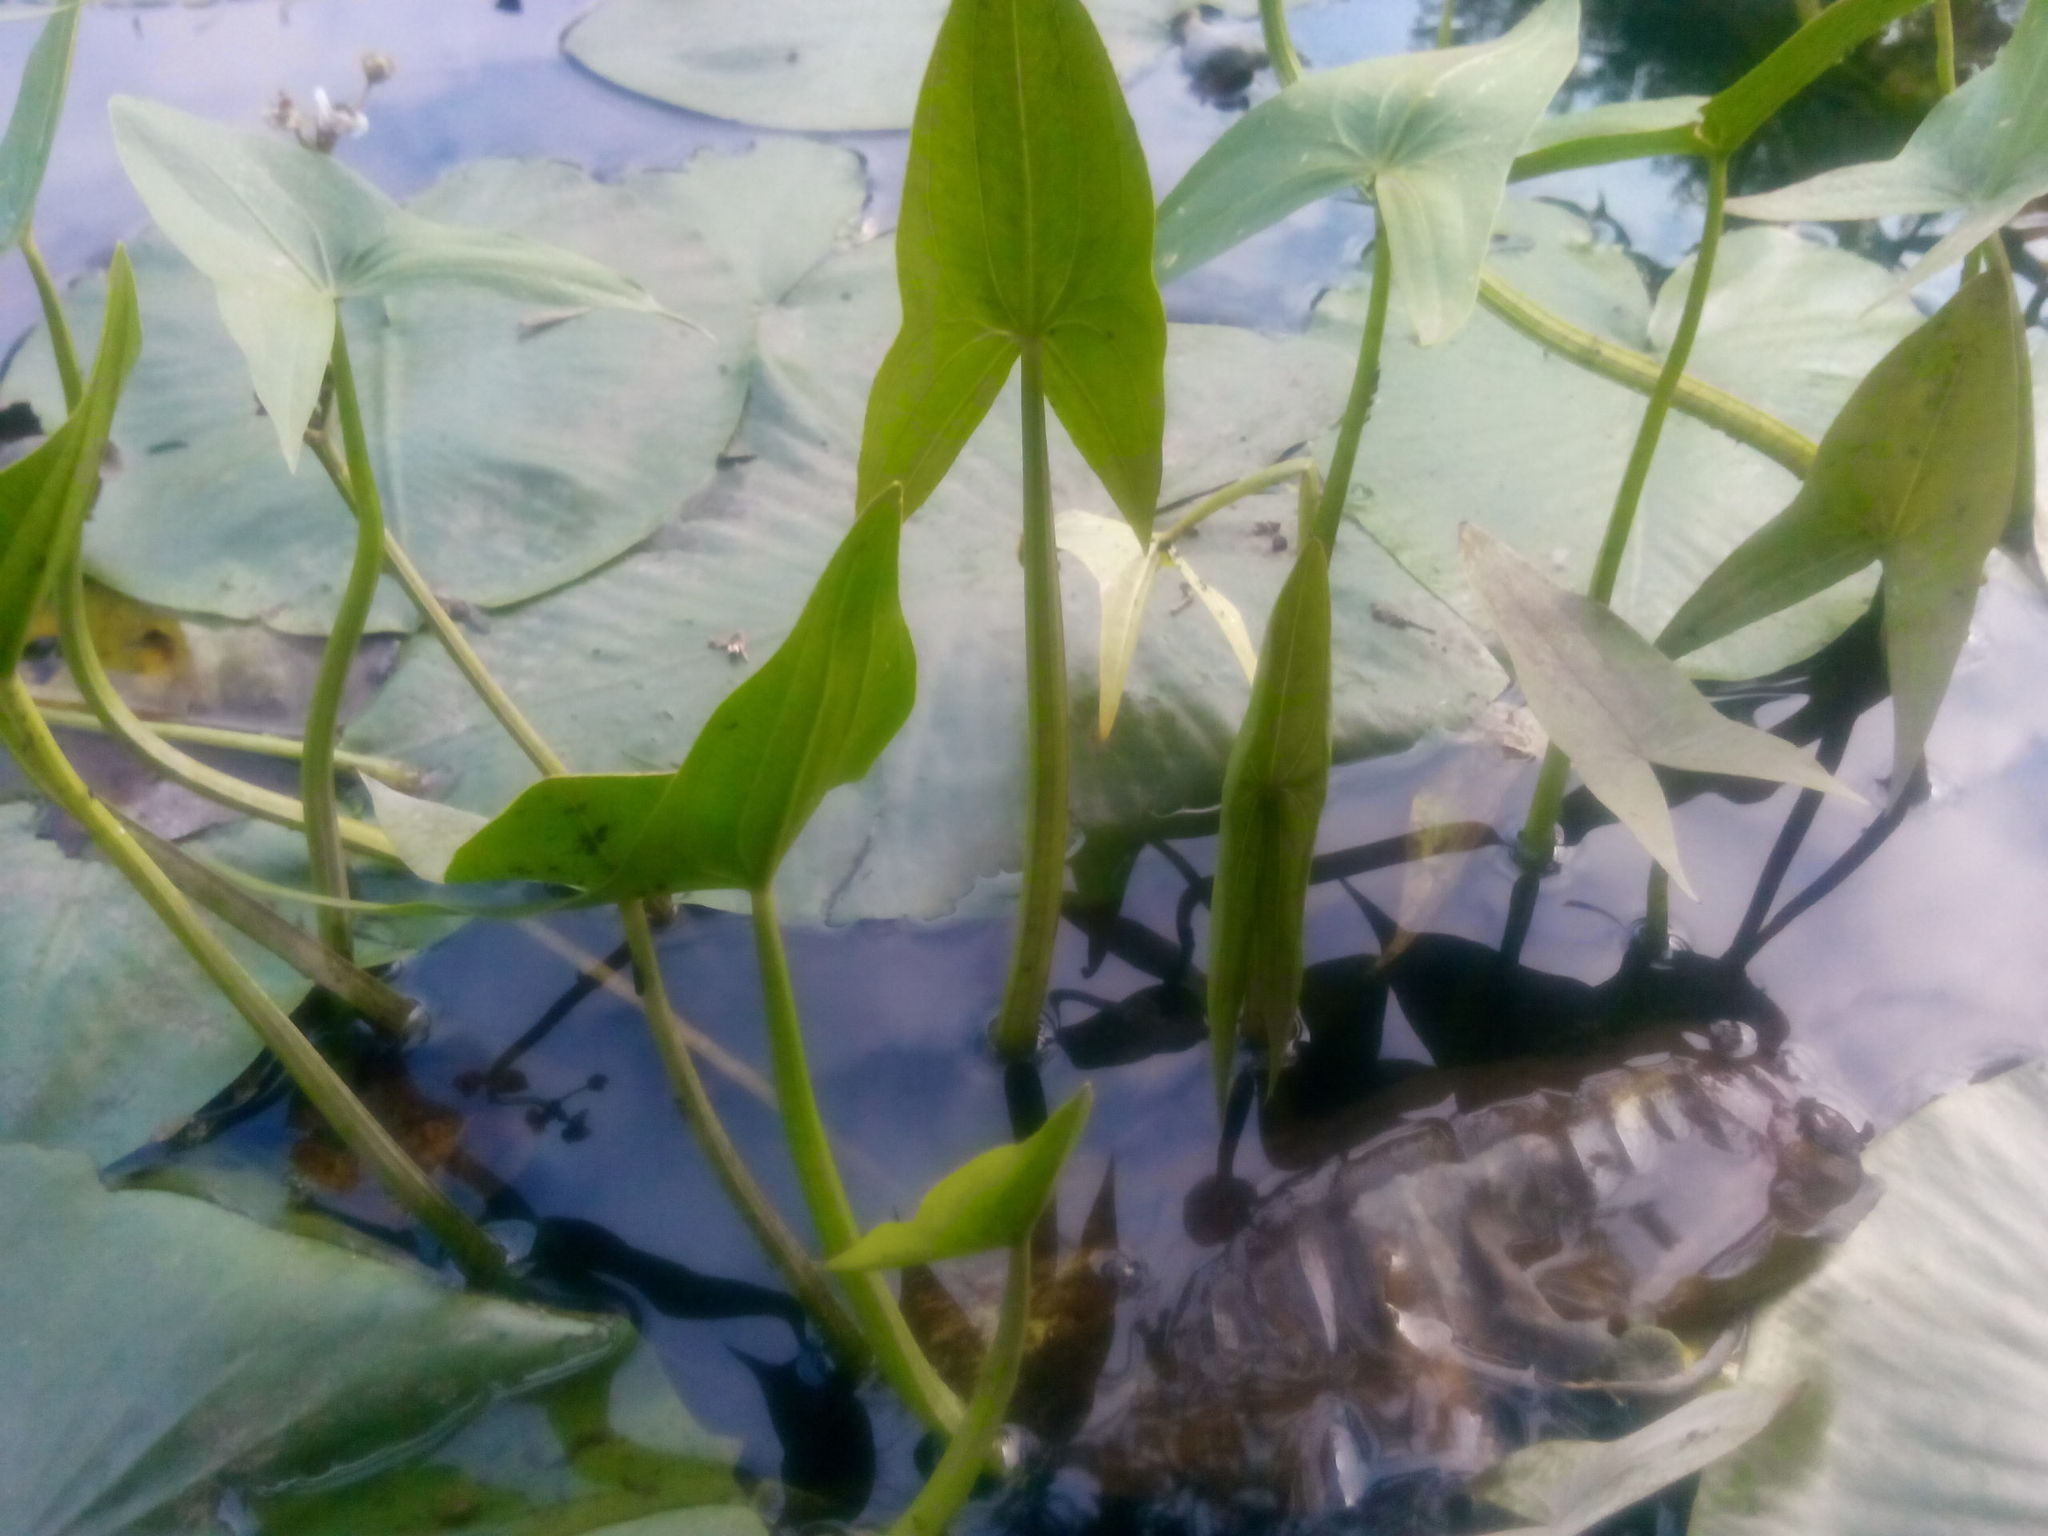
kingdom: Plantae
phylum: Tracheophyta
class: Liliopsida
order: Alismatales
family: Alismataceae
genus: Sagittaria
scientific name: Sagittaria sagittifolia
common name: Arrowhead
